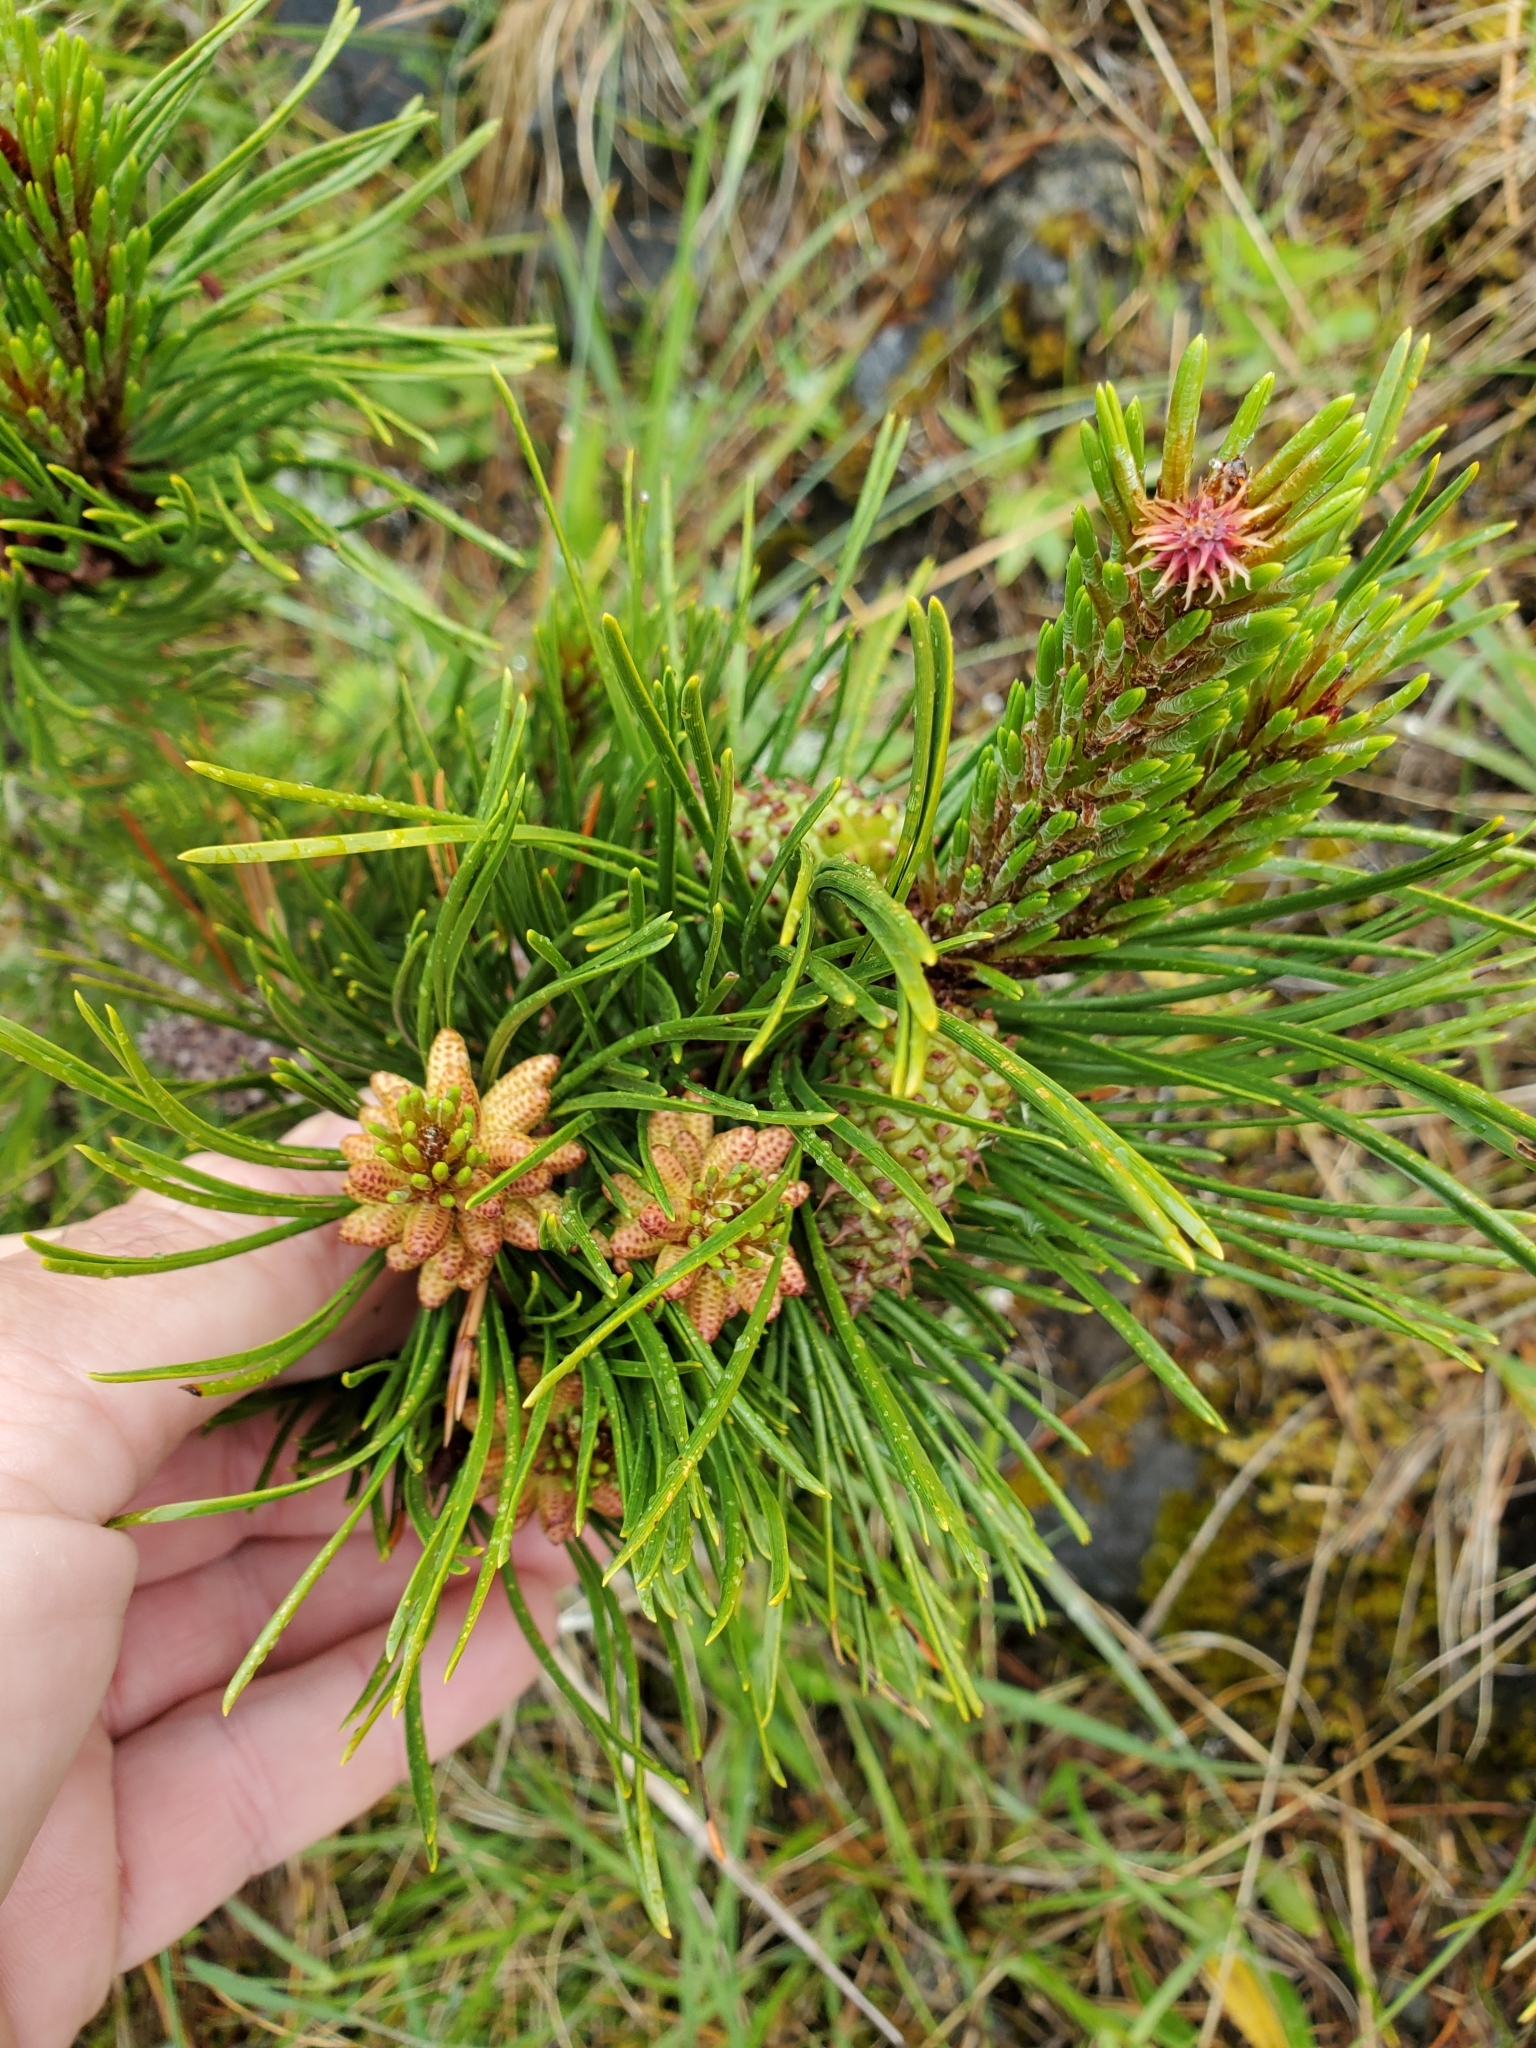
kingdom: Plantae
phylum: Tracheophyta
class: Pinopsida
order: Pinales
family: Pinaceae
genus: Pinus
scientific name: Pinus contorta
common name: Lodgepole pine
